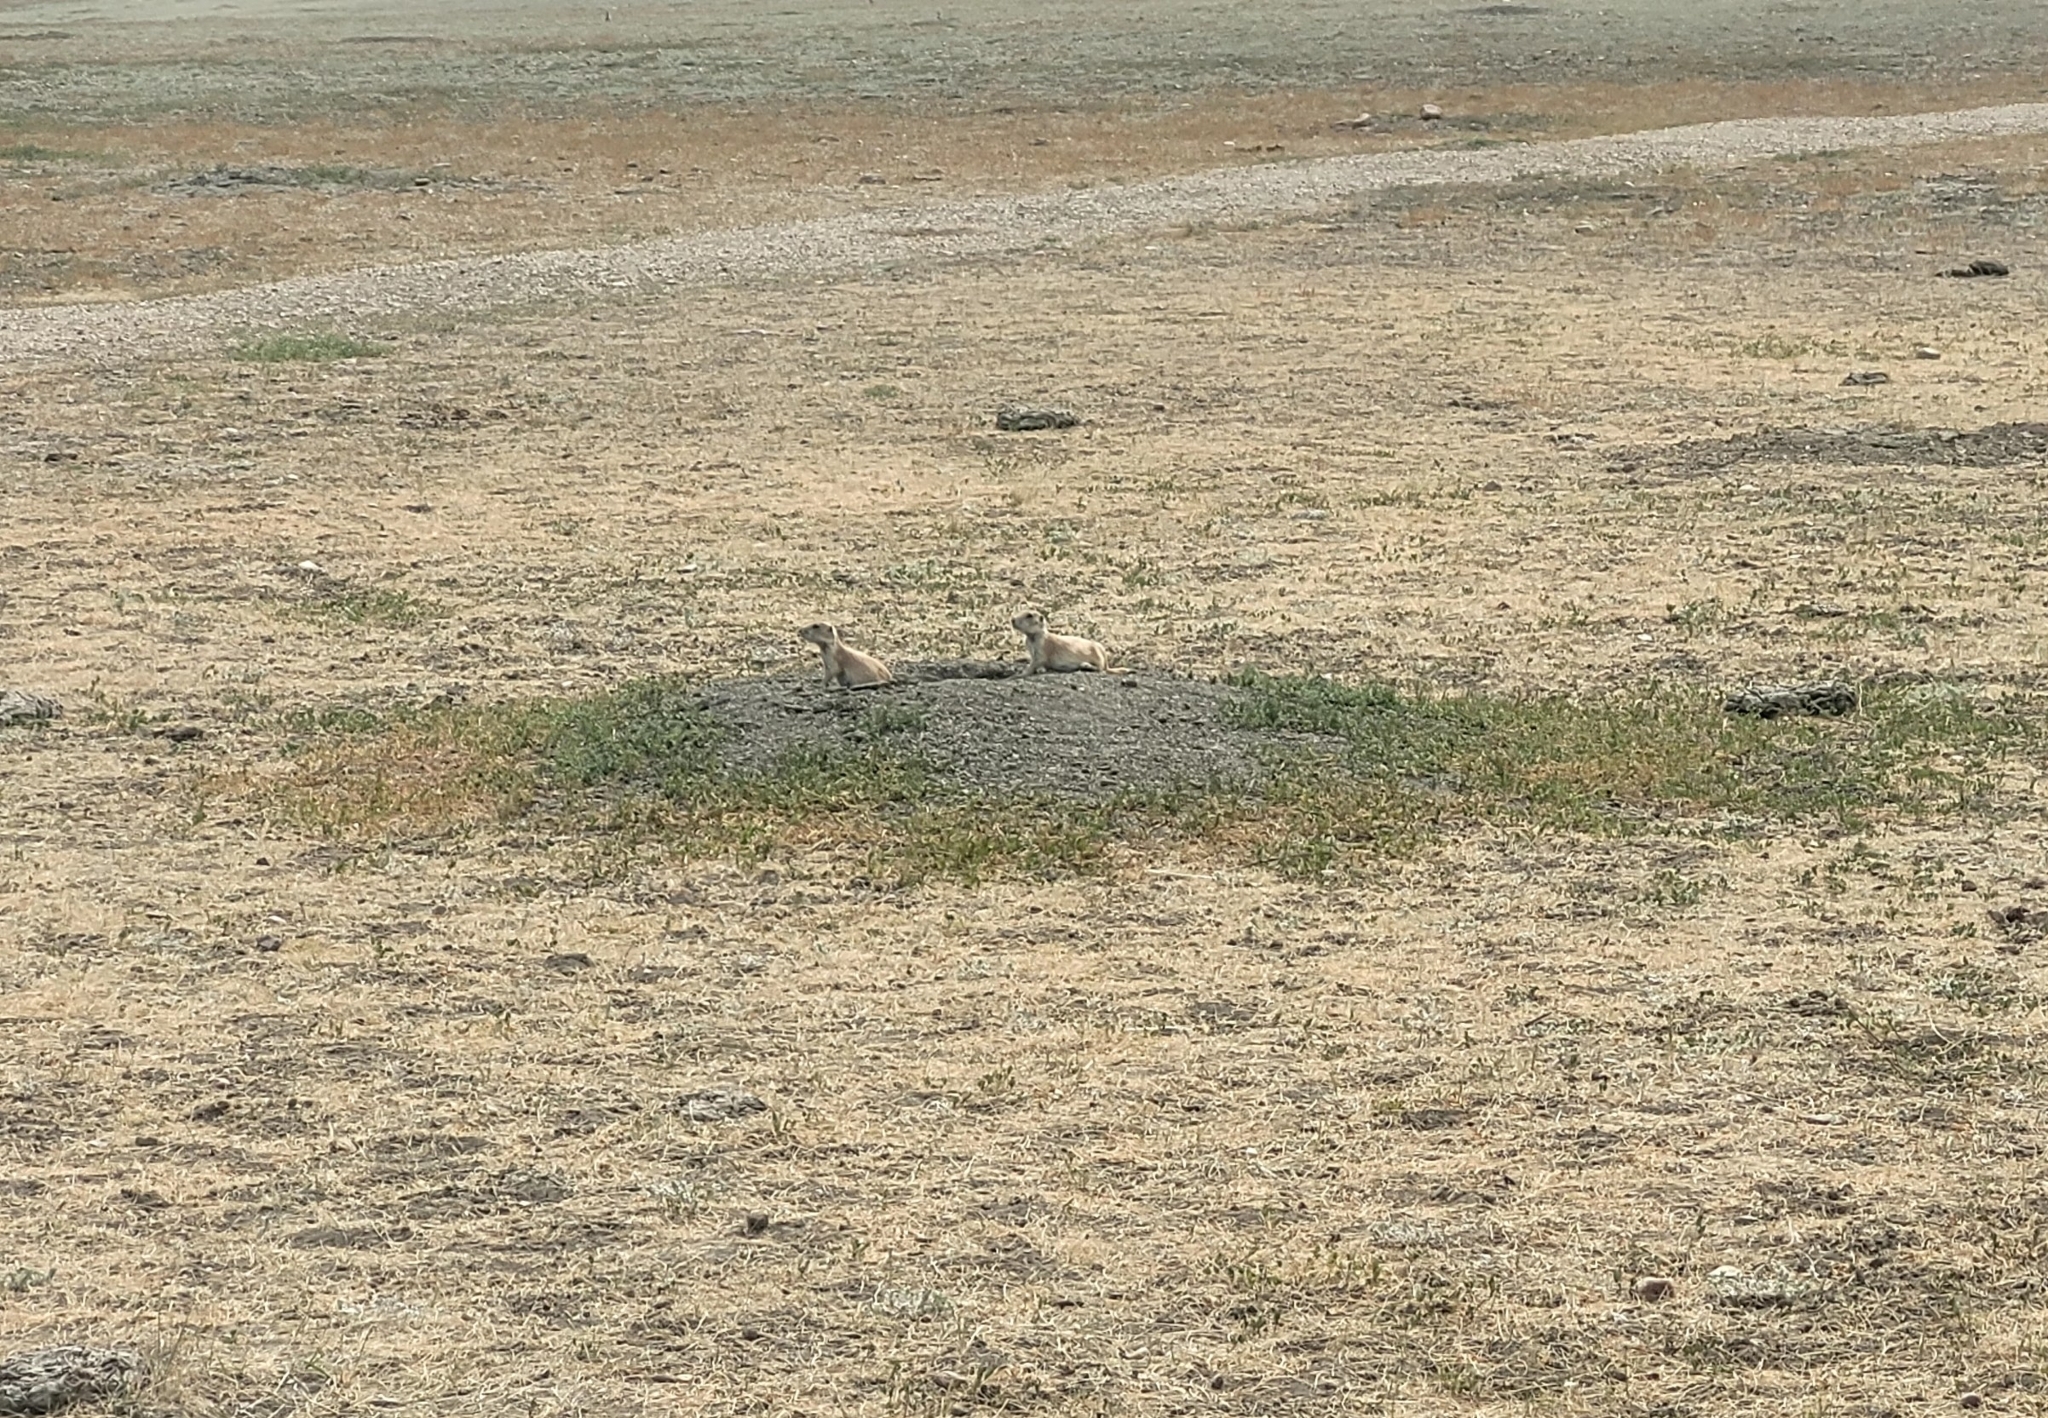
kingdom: Animalia
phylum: Chordata
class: Mammalia
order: Rodentia
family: Sciuridae
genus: Cynomys
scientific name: Cynomys ludovicianus
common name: Black-tailed prairie dog
